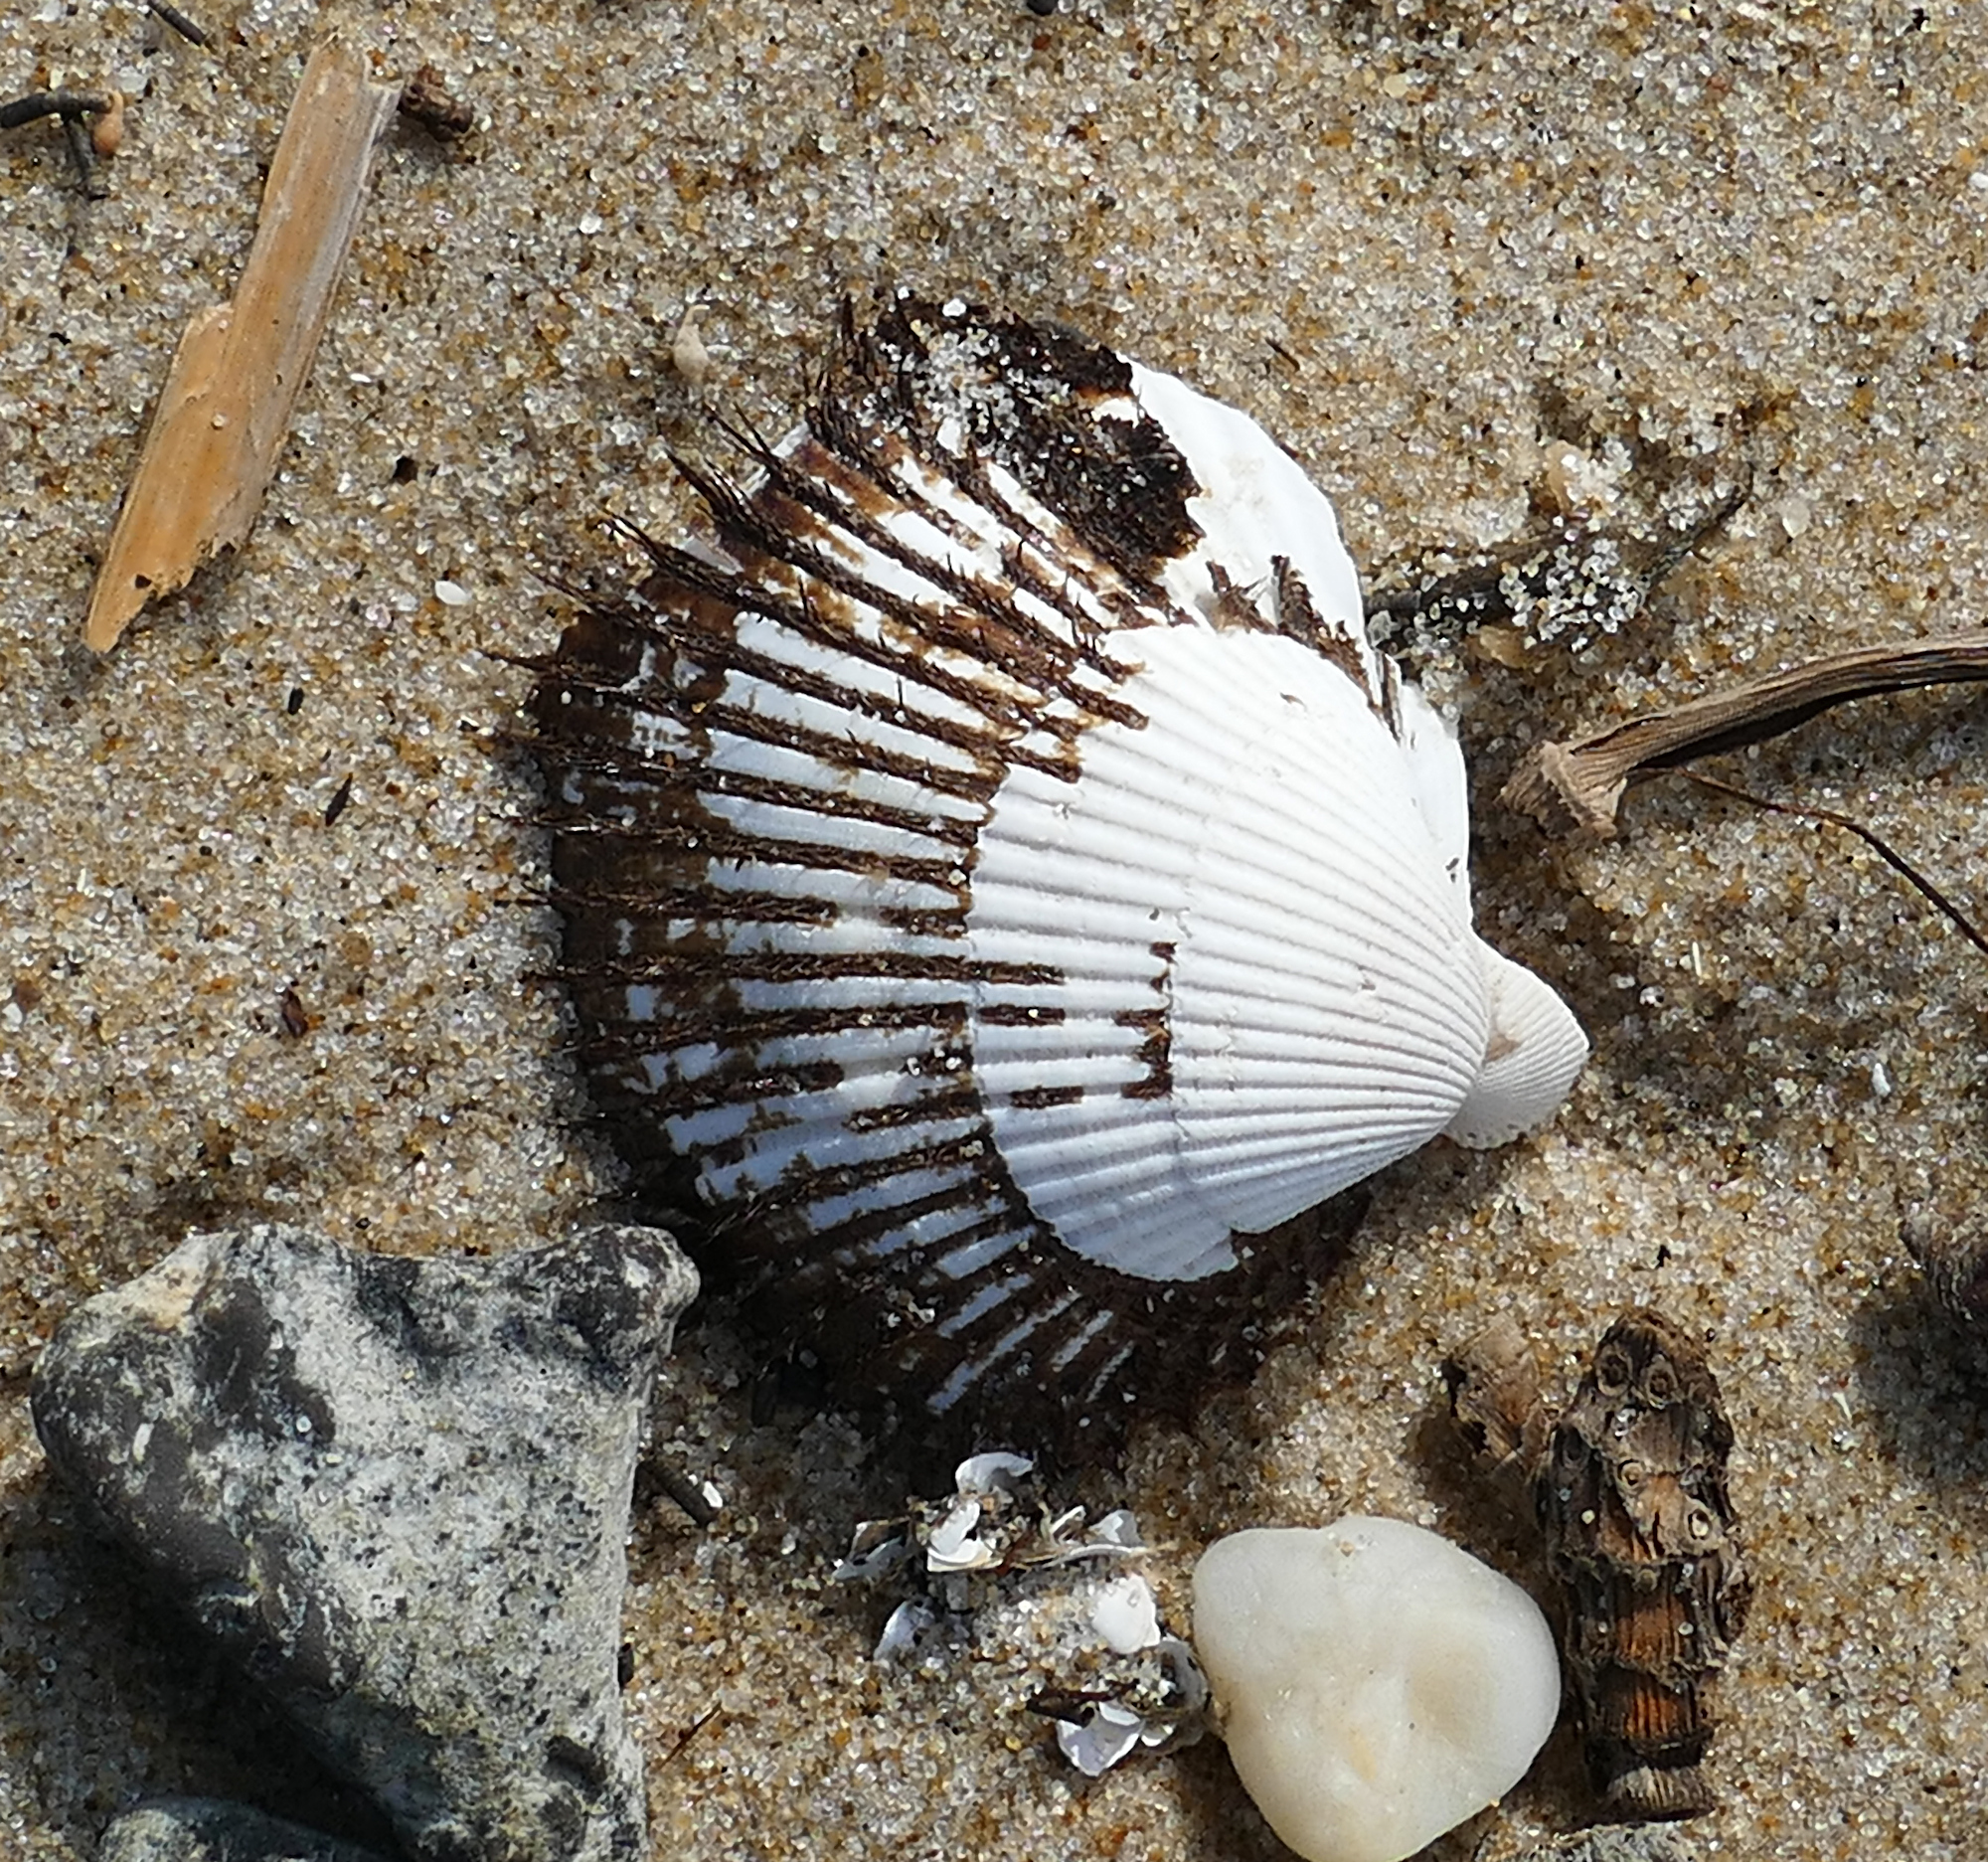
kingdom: Animalia
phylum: Mollusca
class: Bivalvia
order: Arcida
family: Arcidae
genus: Lunarca
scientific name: Lunarca ovalis
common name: Blood ark
